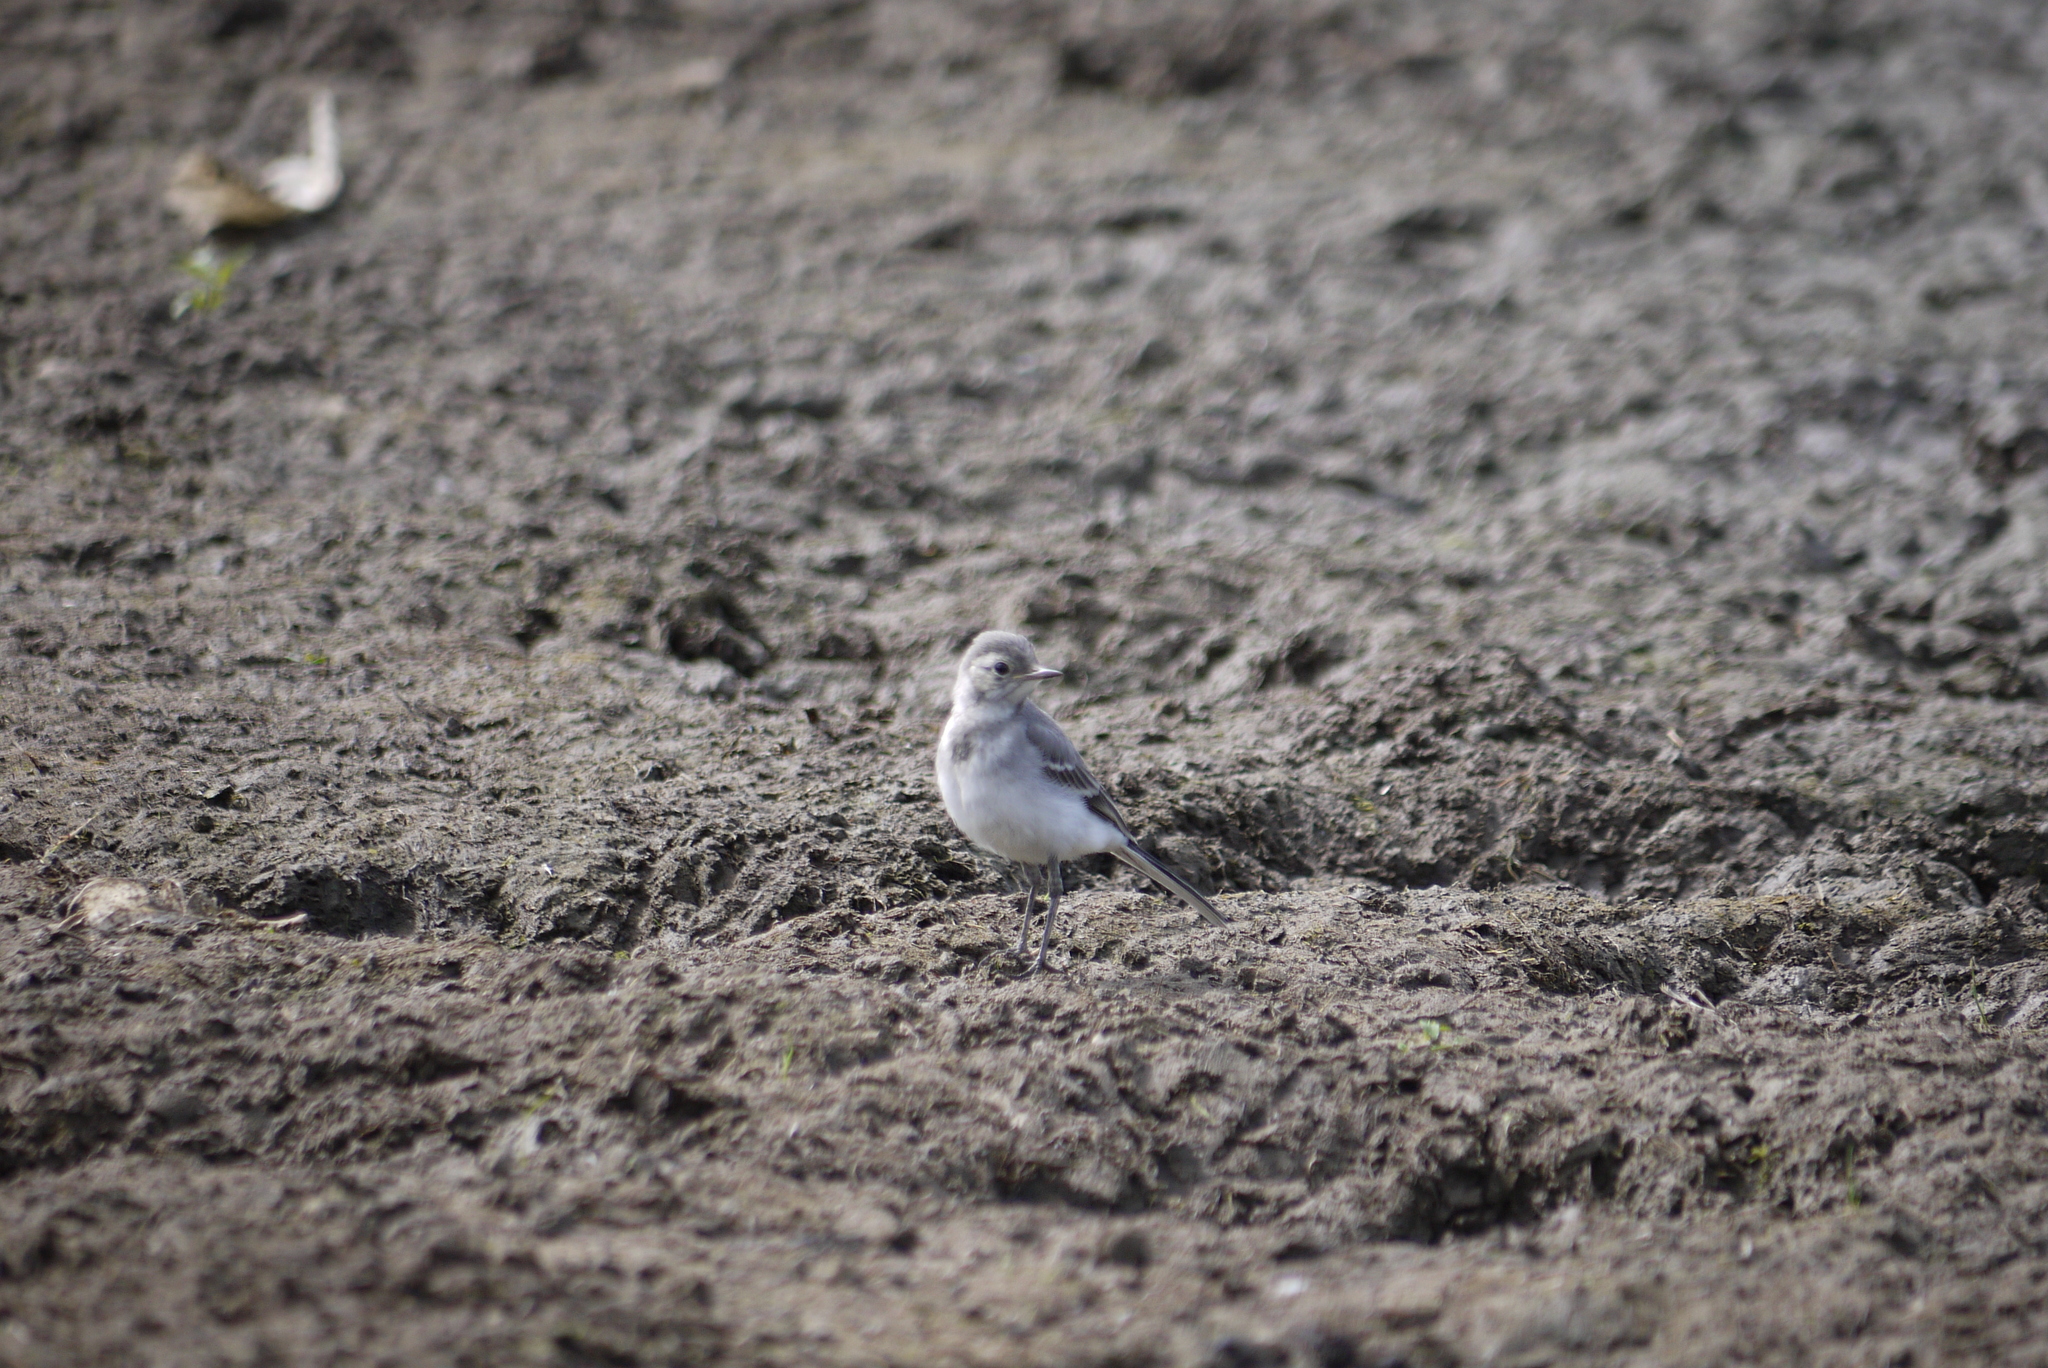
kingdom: Animalia
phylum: Chordata
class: Aves
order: Passeriformes
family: Motacillidae
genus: Motacilla
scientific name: Motacilla alba
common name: White wagtail
